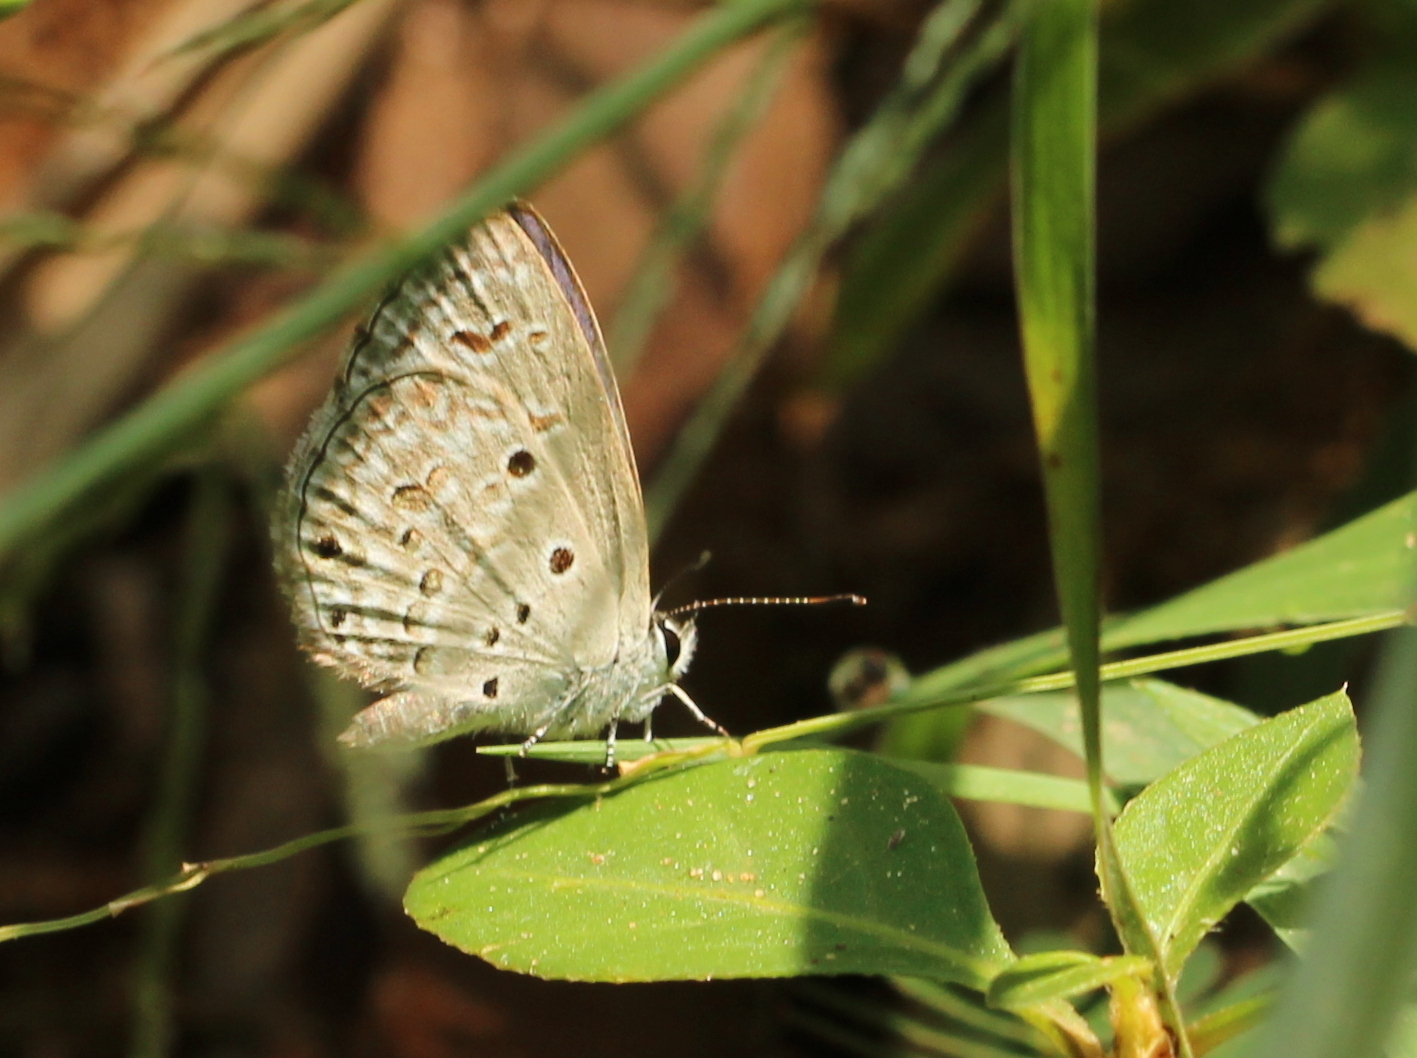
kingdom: Animalia
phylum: Arthropoda
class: Insecta
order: Lepidoptera
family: Lycaenidae
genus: Chilades
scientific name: Chilades laius
